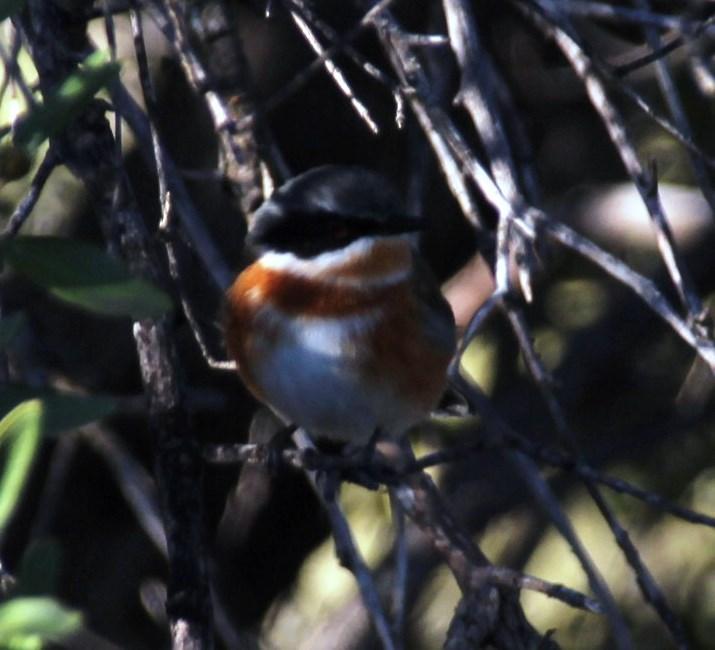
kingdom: Animalia
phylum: Chordata
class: Aves
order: Passeriformes
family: Platysteiridae
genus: Batis
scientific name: Batis capensis
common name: Cape batis
